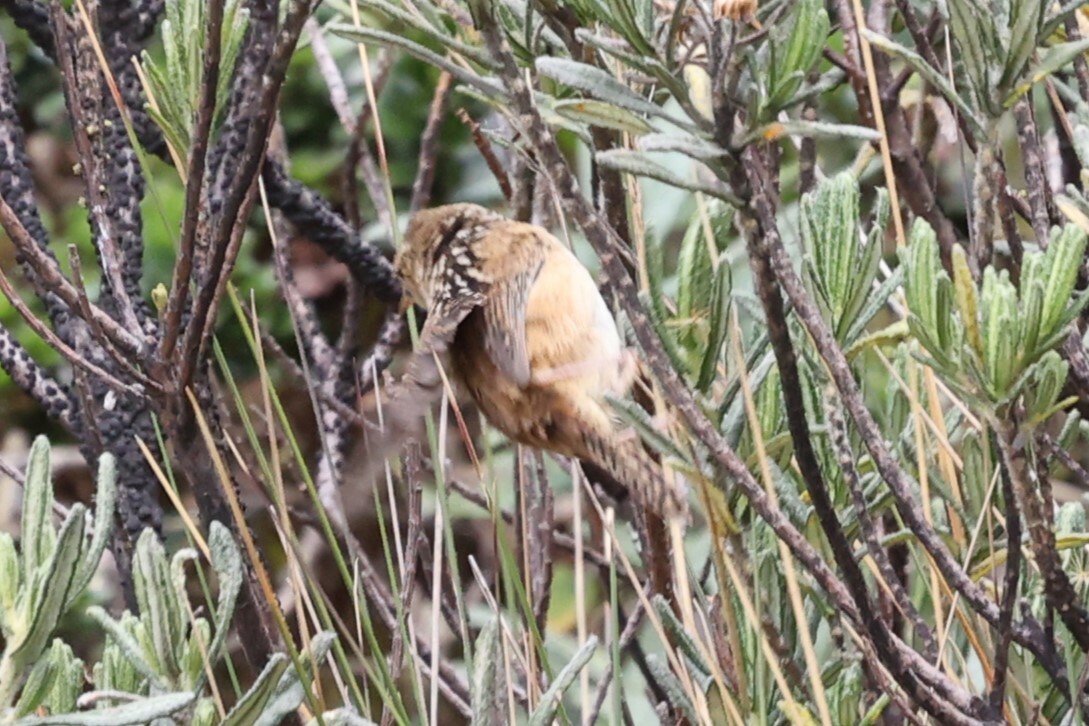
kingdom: Animalia
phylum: Chordata
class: Aves
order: Passeriformes
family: Troglodytidae
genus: Cistothorus
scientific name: Cistothorus platensis
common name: Sedge wren
